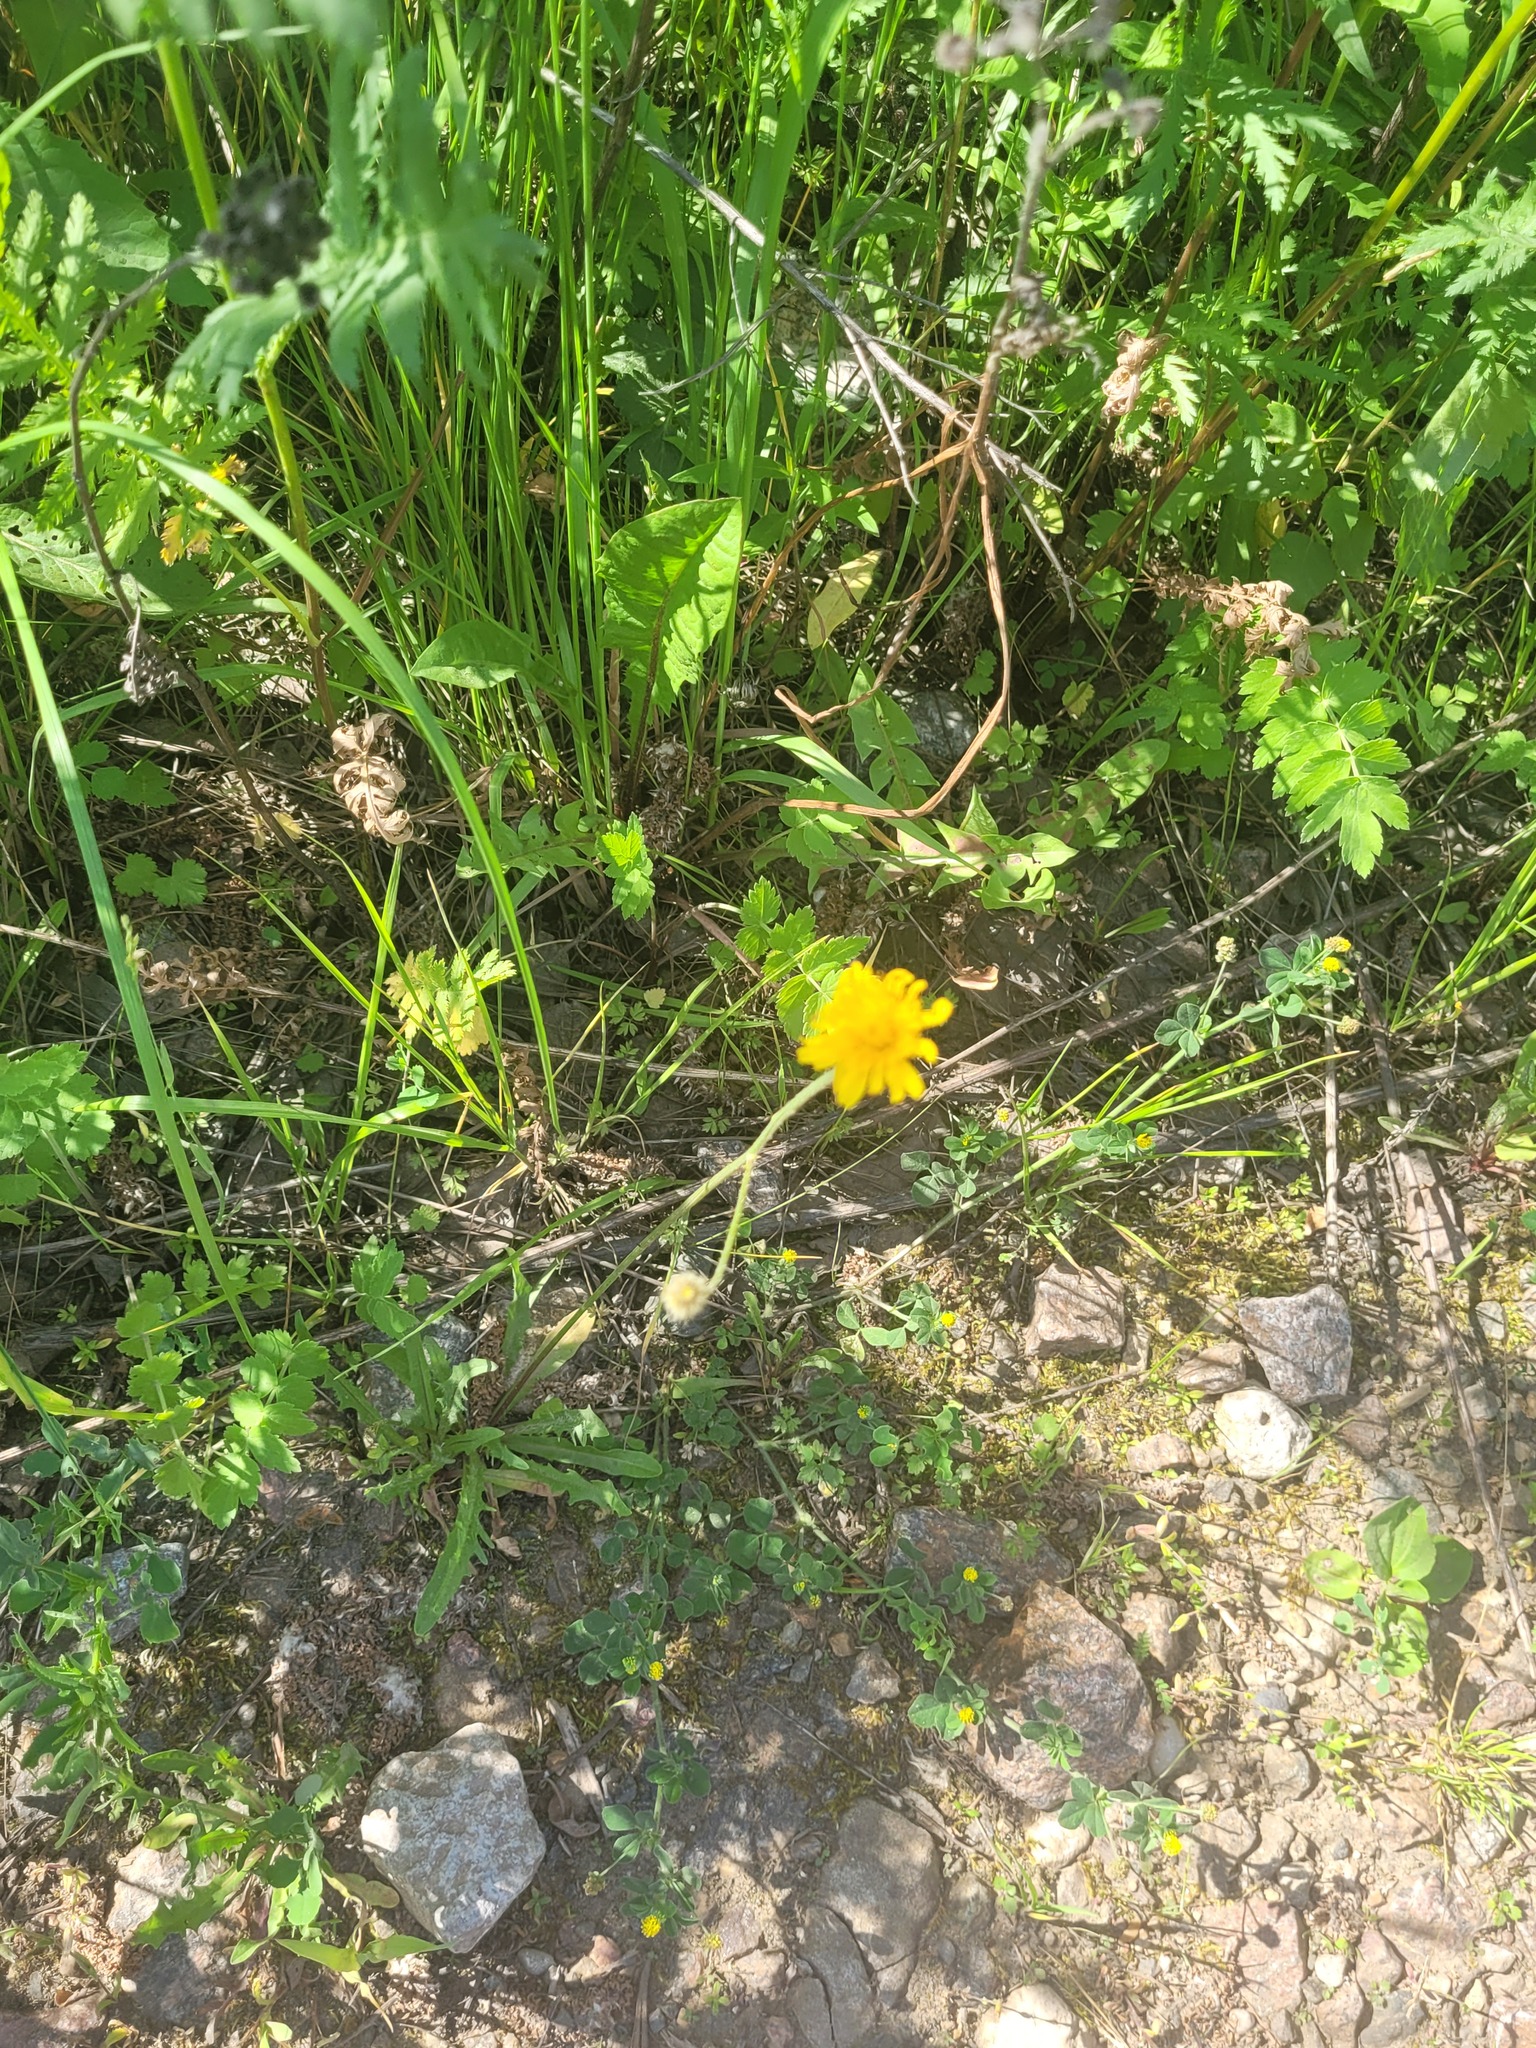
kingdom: Plantae
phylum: Tracheophyta
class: Magnoliopsida
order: Asterales
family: Asteraceae
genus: Scorzoneroides
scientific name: Scorzoneroides autumnalis
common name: Autumn hawkbit
